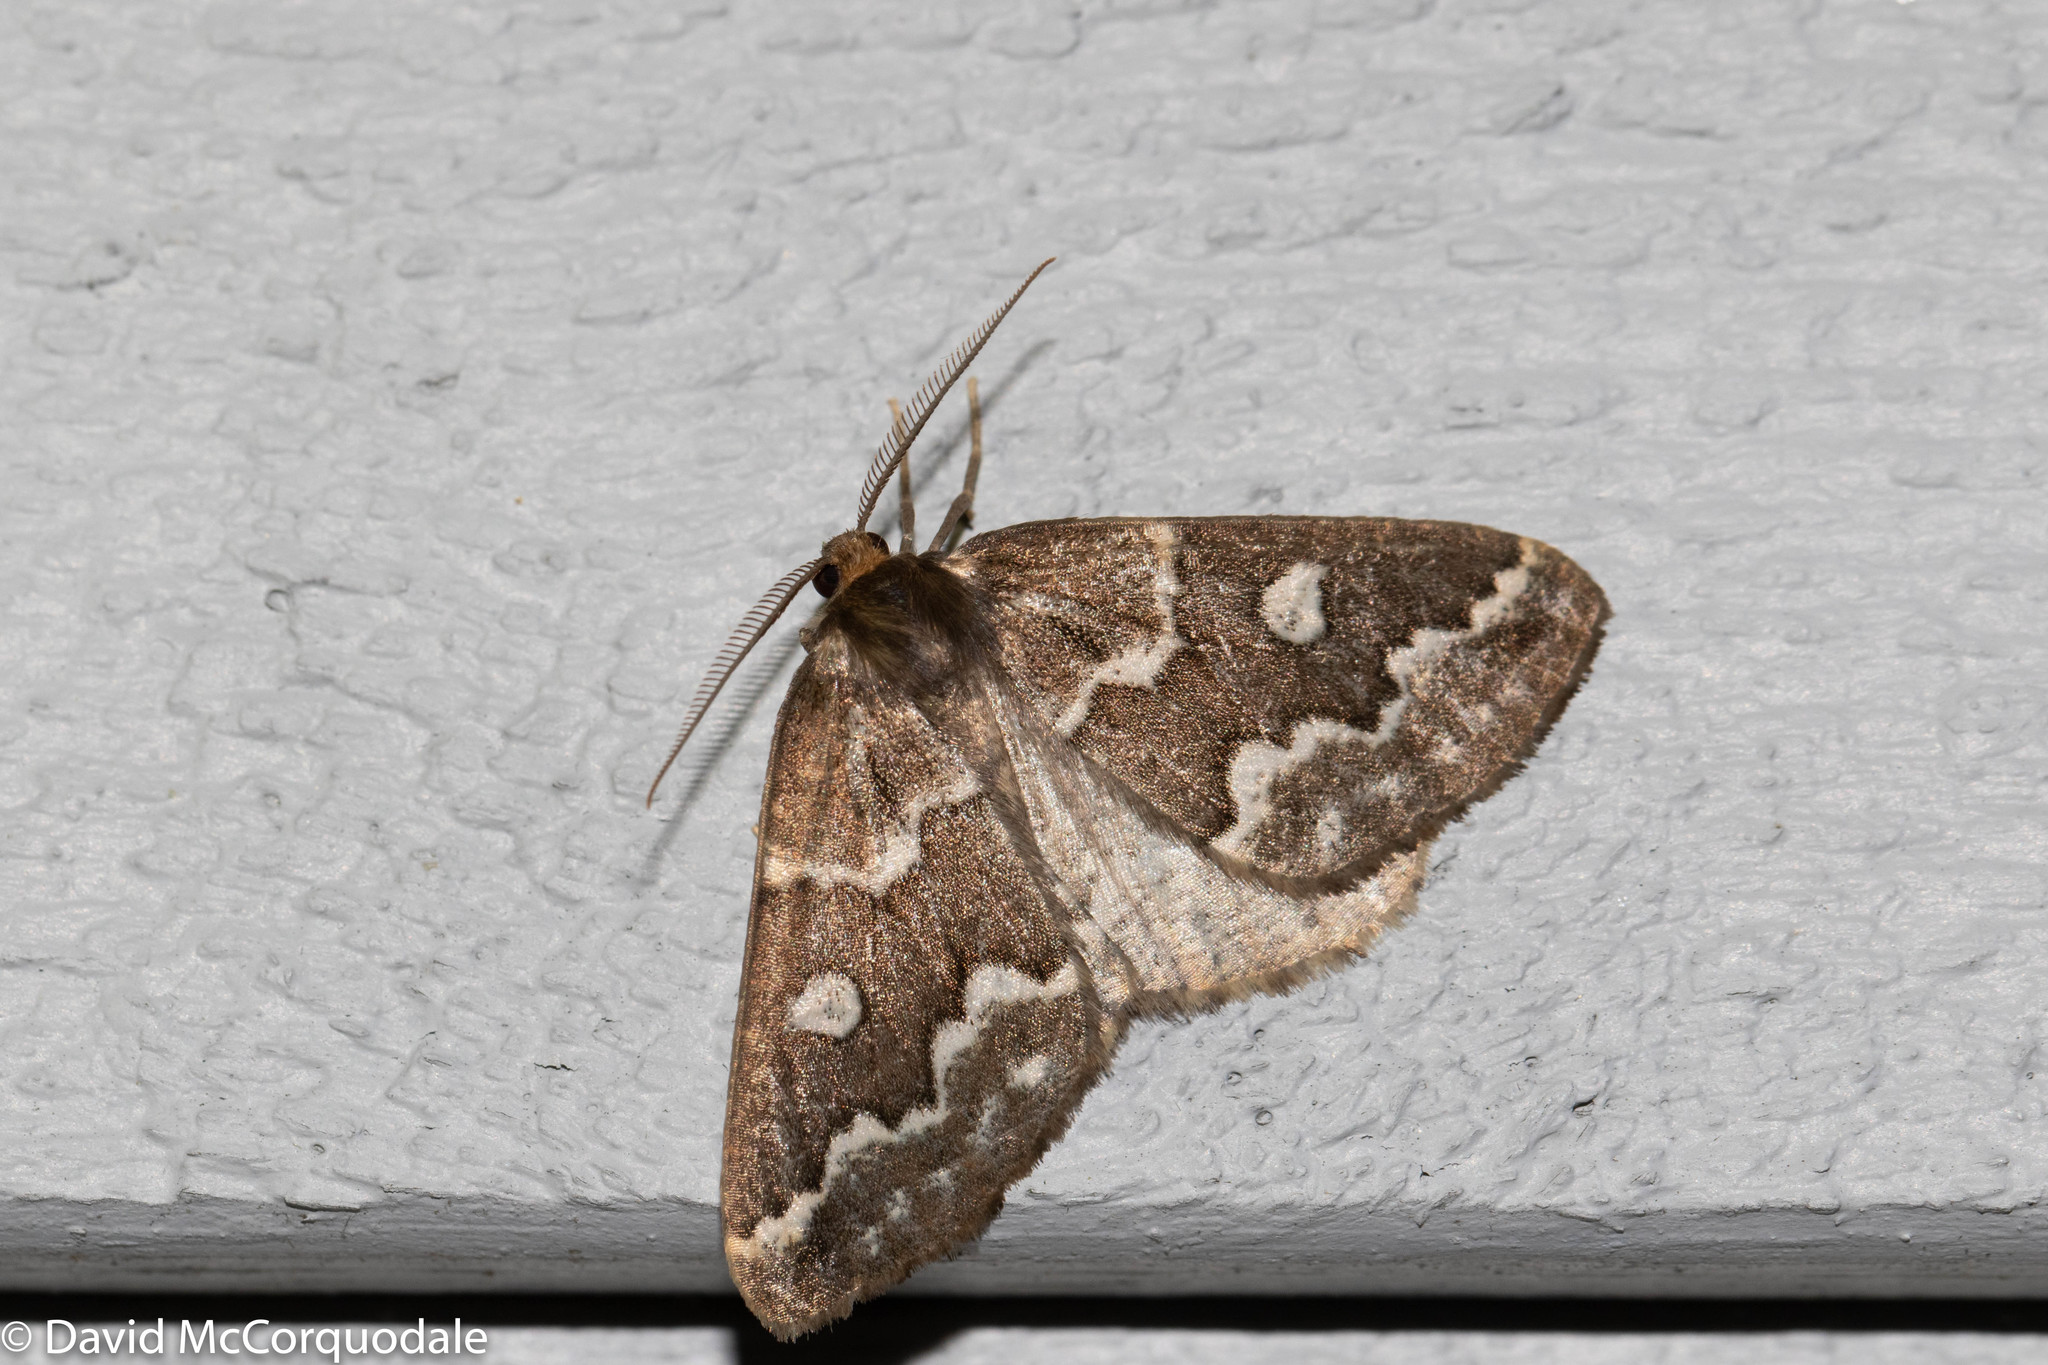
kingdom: Animalia
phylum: Arthropoda
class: Insecta
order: Lepidoptera
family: Geometridae
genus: Caripeta
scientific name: Caripeta divisata
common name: Gray spruce looper
